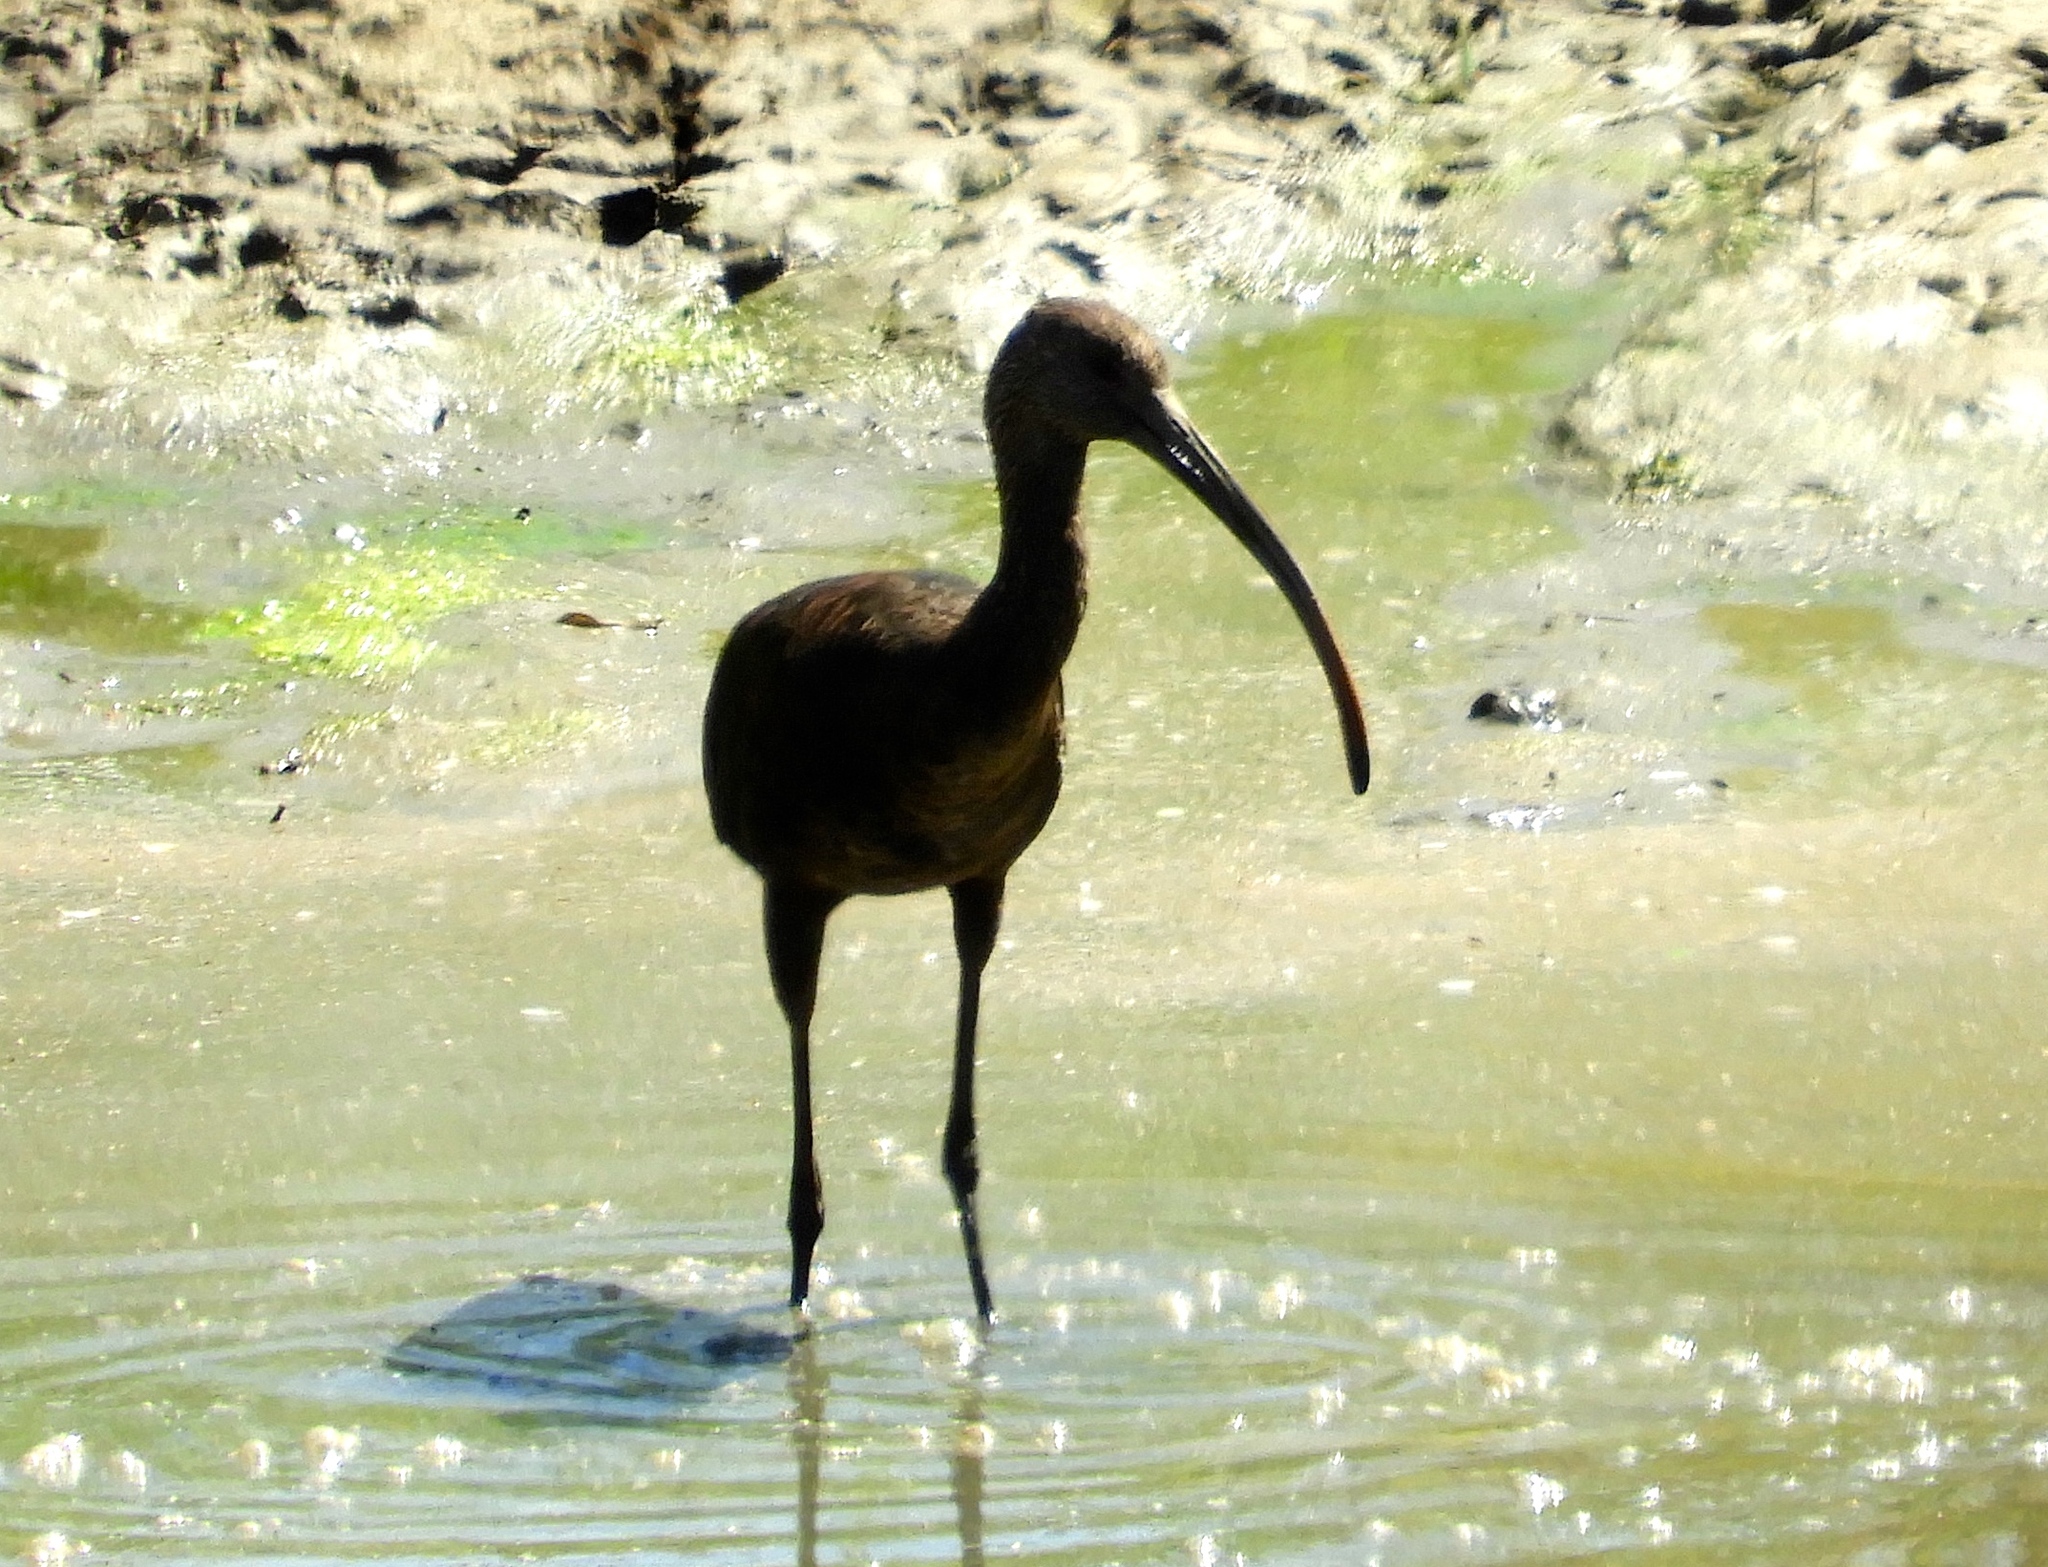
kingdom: Animalia
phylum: Chordata
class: Aves
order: Pelecaniformes
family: Threskiornithidae
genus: Plegadis
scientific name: Plegadis chihi
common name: White-faced ibis
